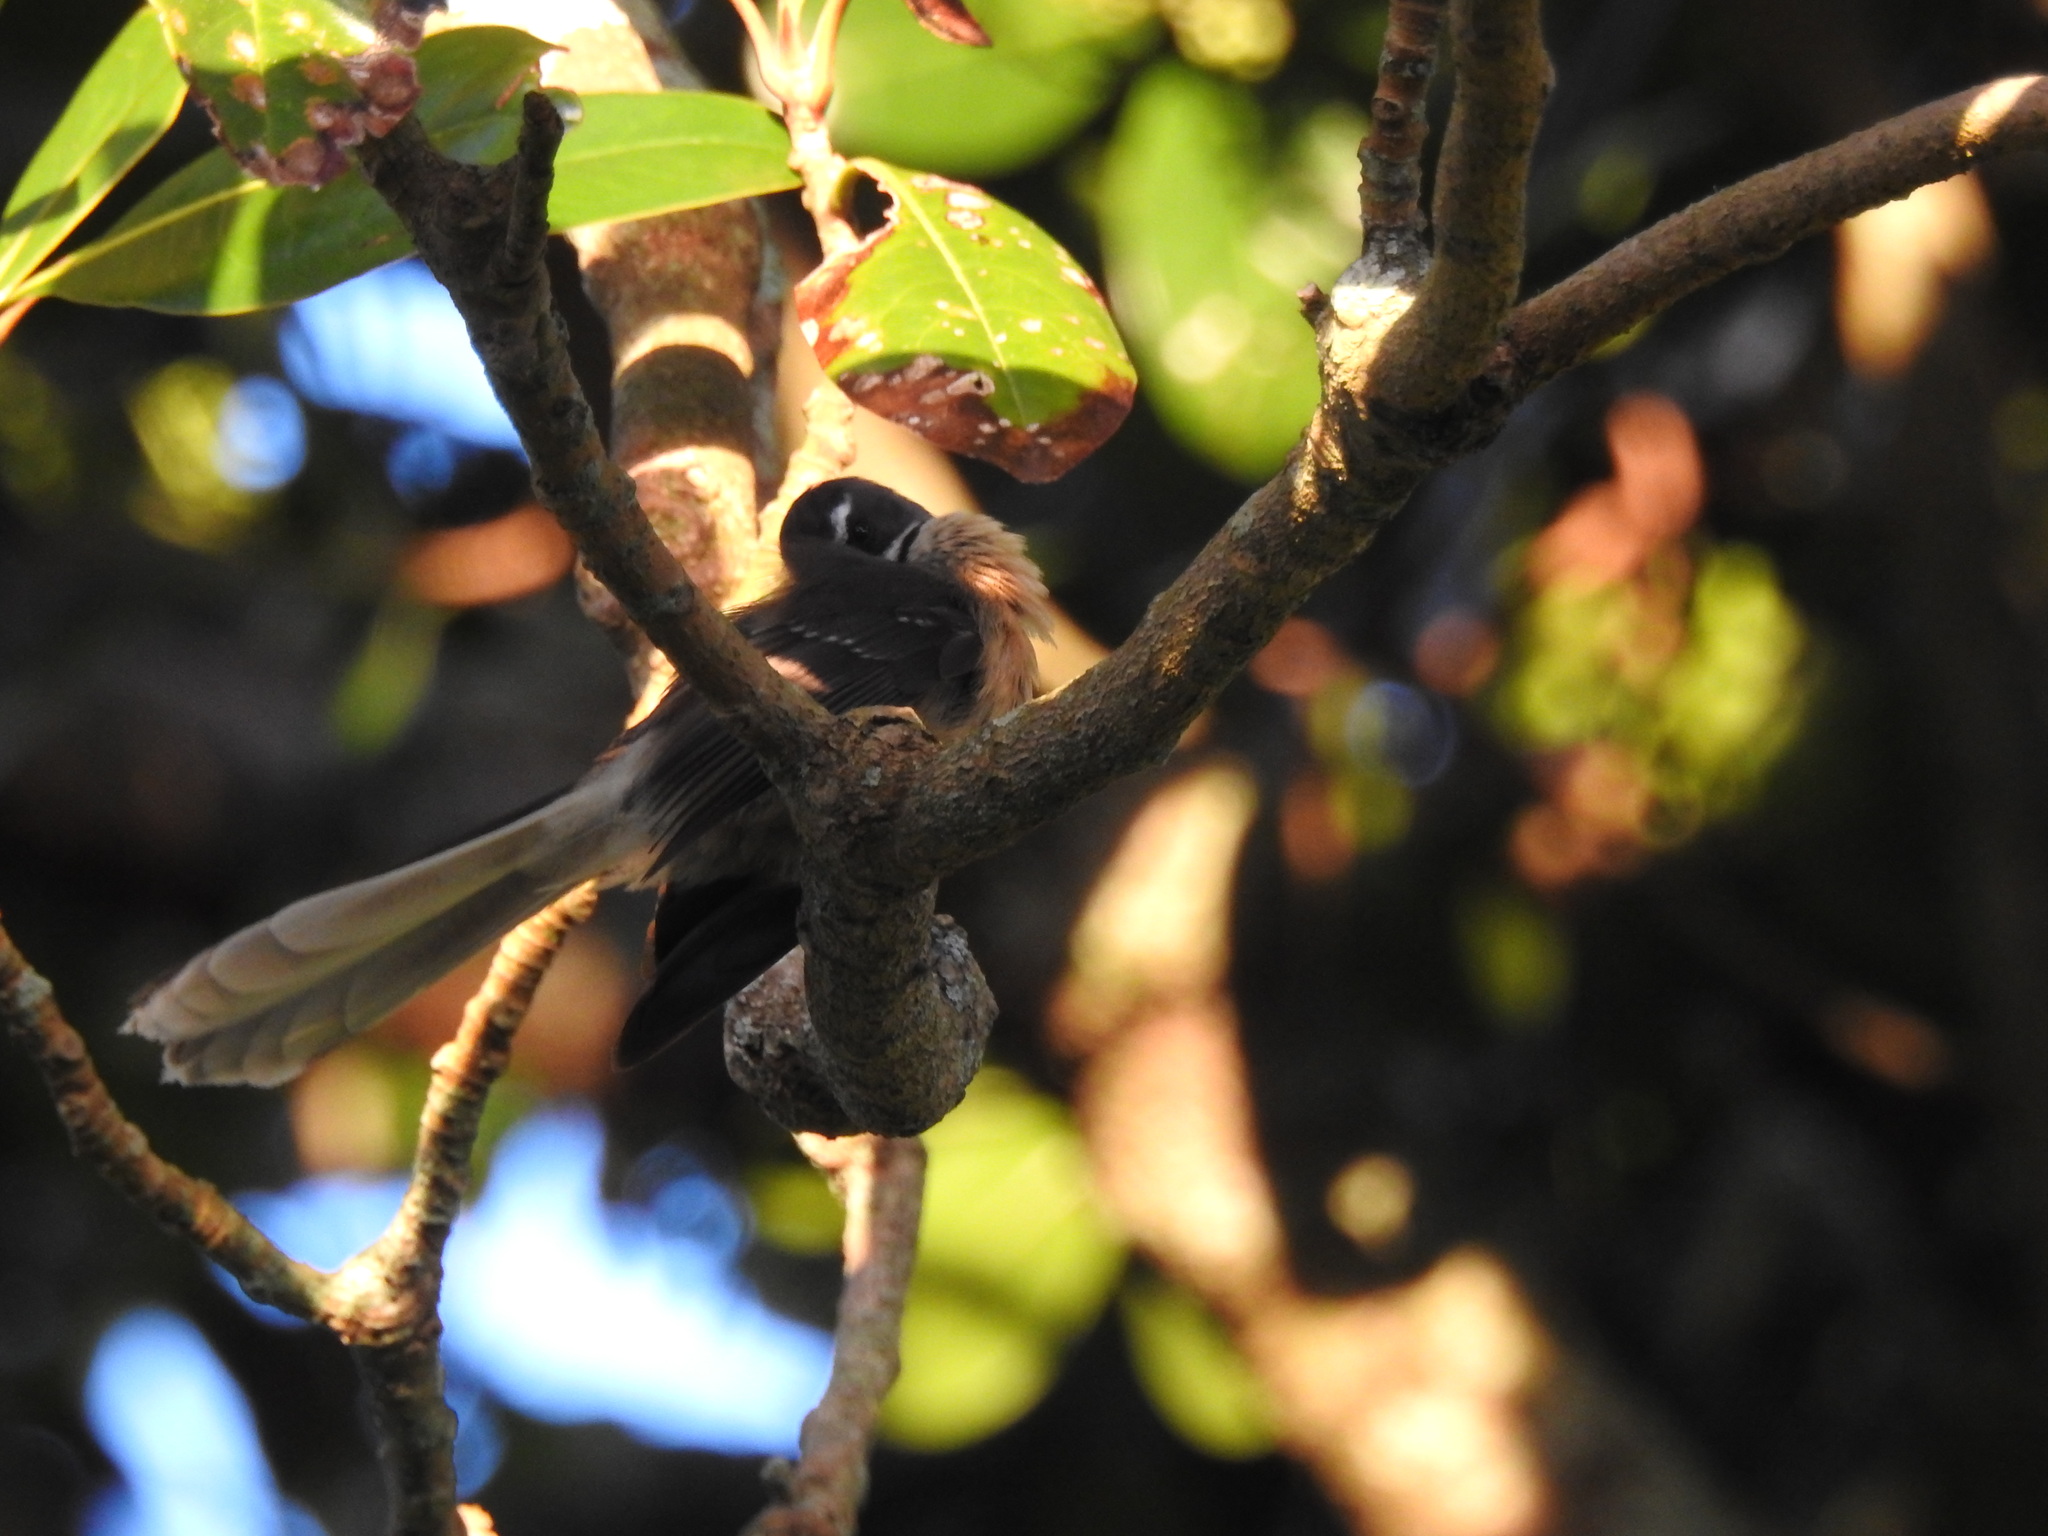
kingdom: Animalia
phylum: Chordata
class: Aves
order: Passeriformes
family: Rhipiduridae
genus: Rhipidura
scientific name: Rhipidura fuliginosa
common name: New zealand fantail
